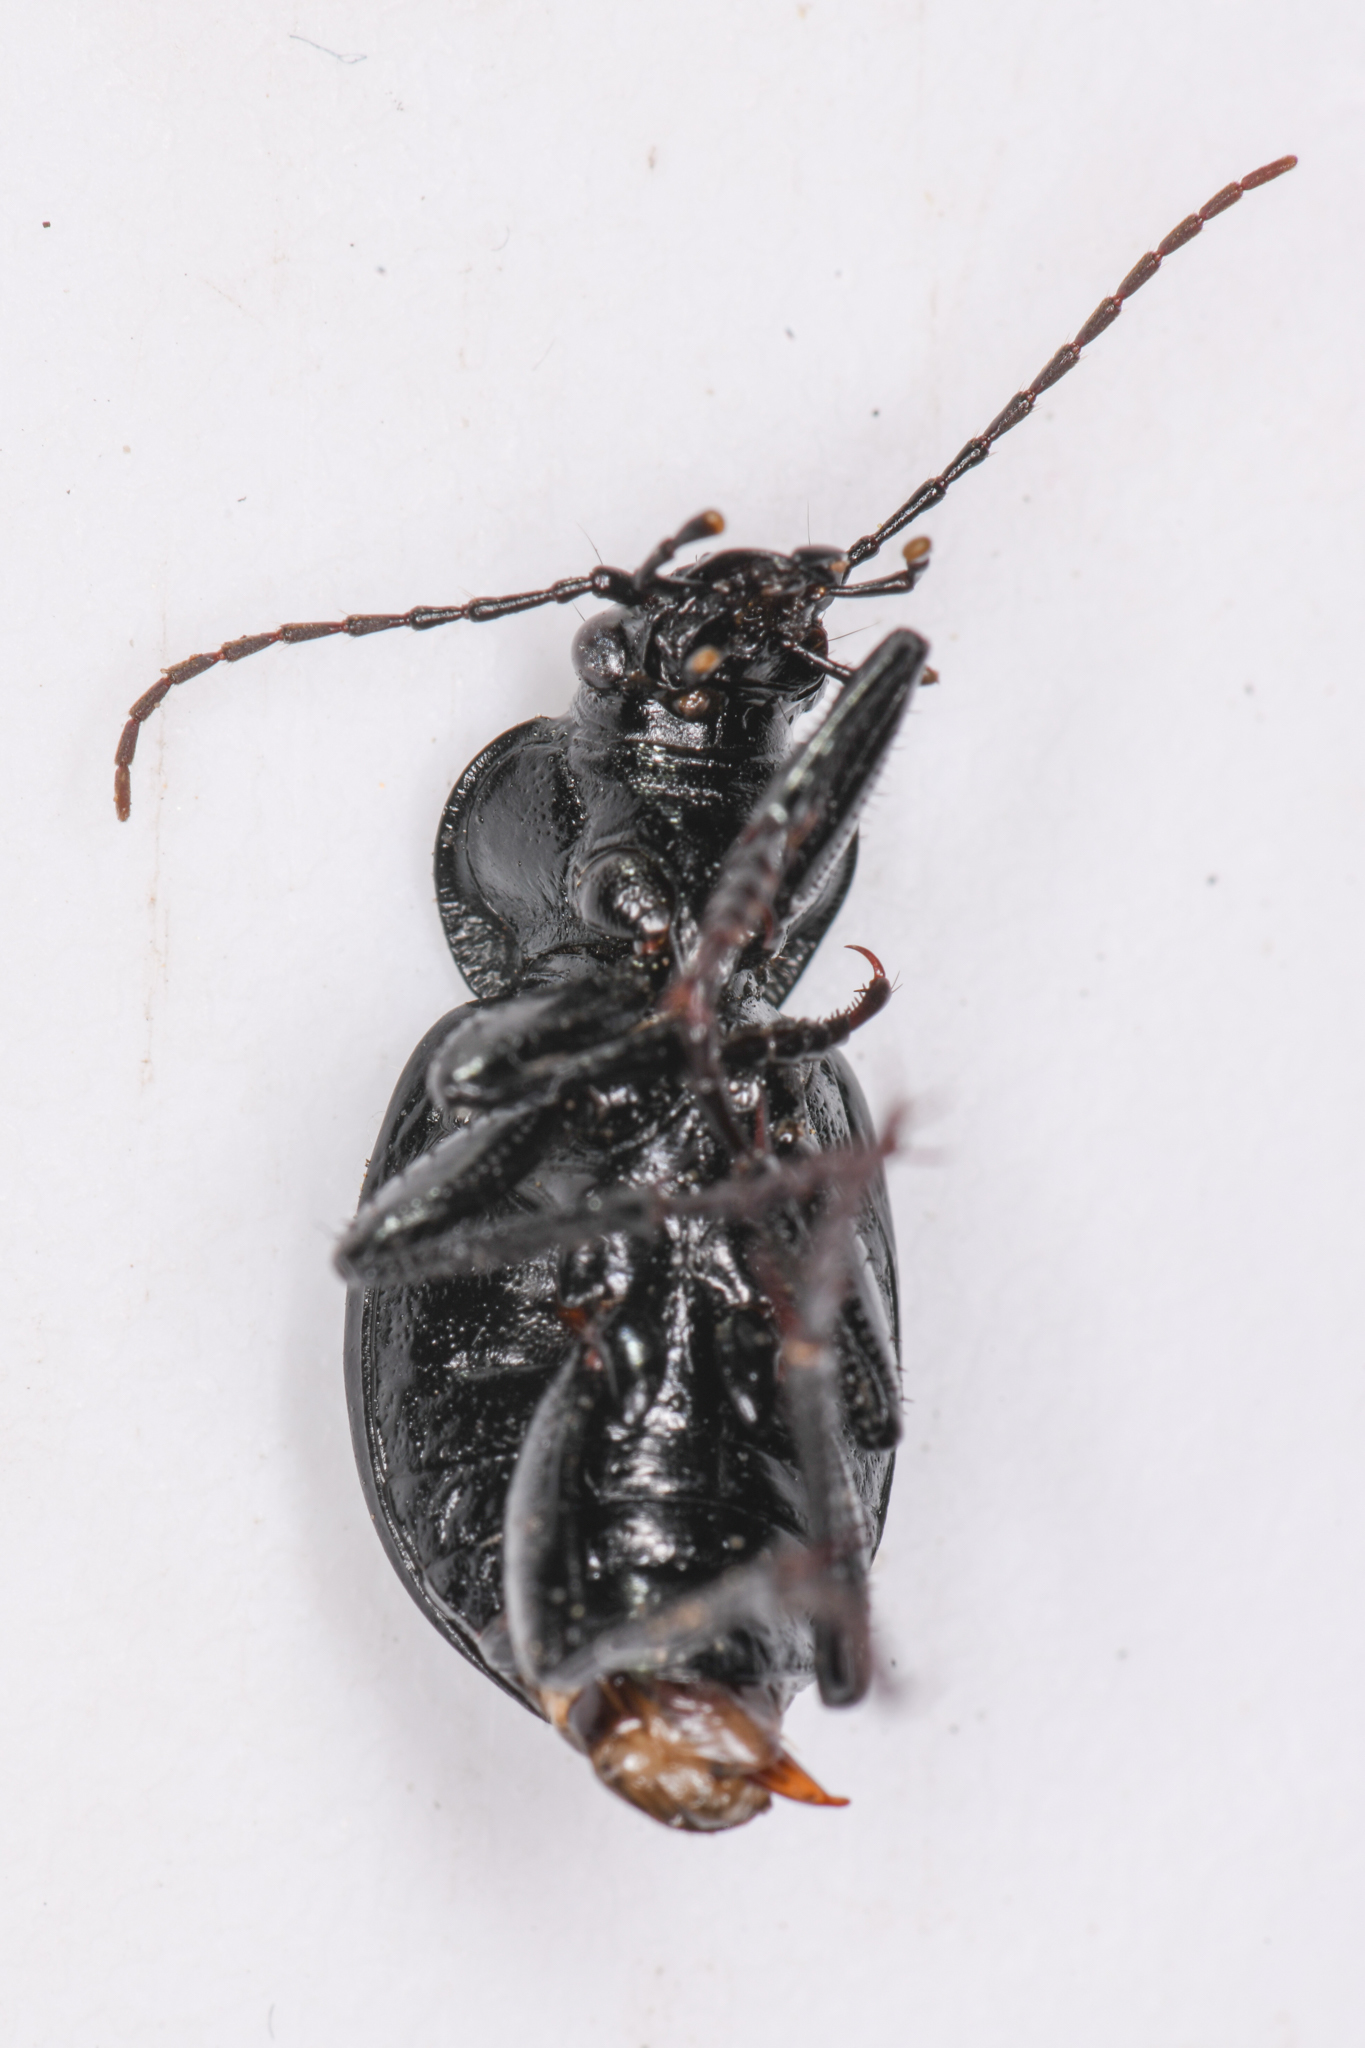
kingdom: Animalia
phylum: Arthropoda
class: Insecta
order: Coleoptera
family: Carabidae
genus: Calosoma
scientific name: Calosoma discors
